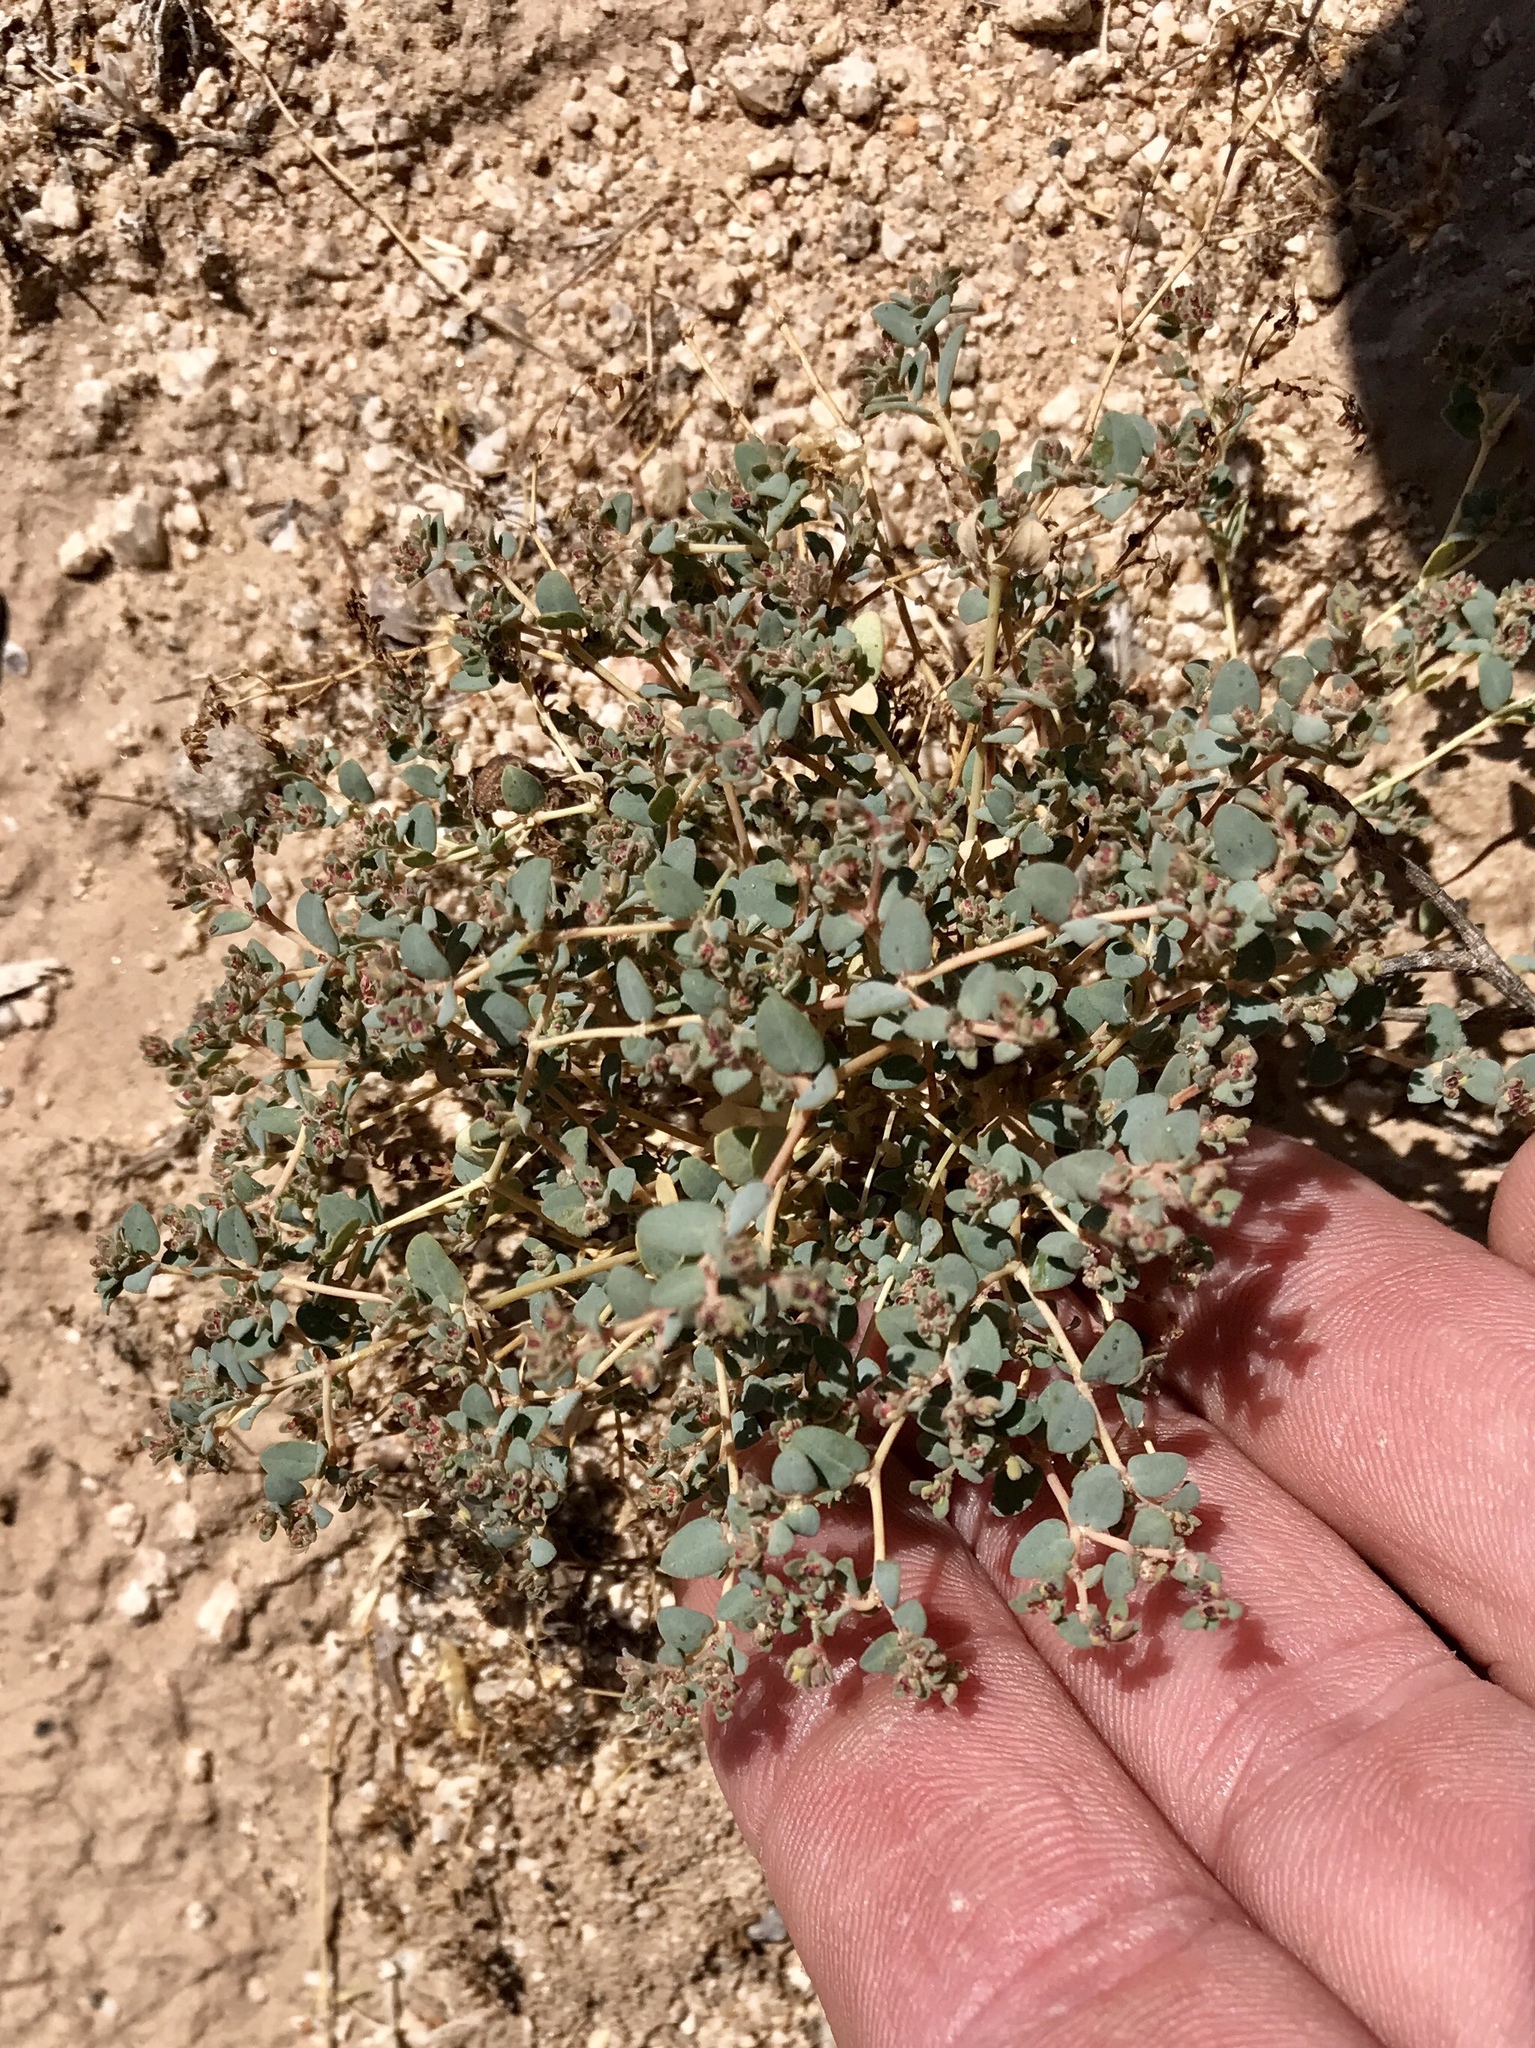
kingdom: Plantae
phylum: Tracheophyta
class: Magnoliopsida
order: Malpighiales
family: Euphorbiaceae
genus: Euphorbia
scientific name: Euphorbia polycarpa
